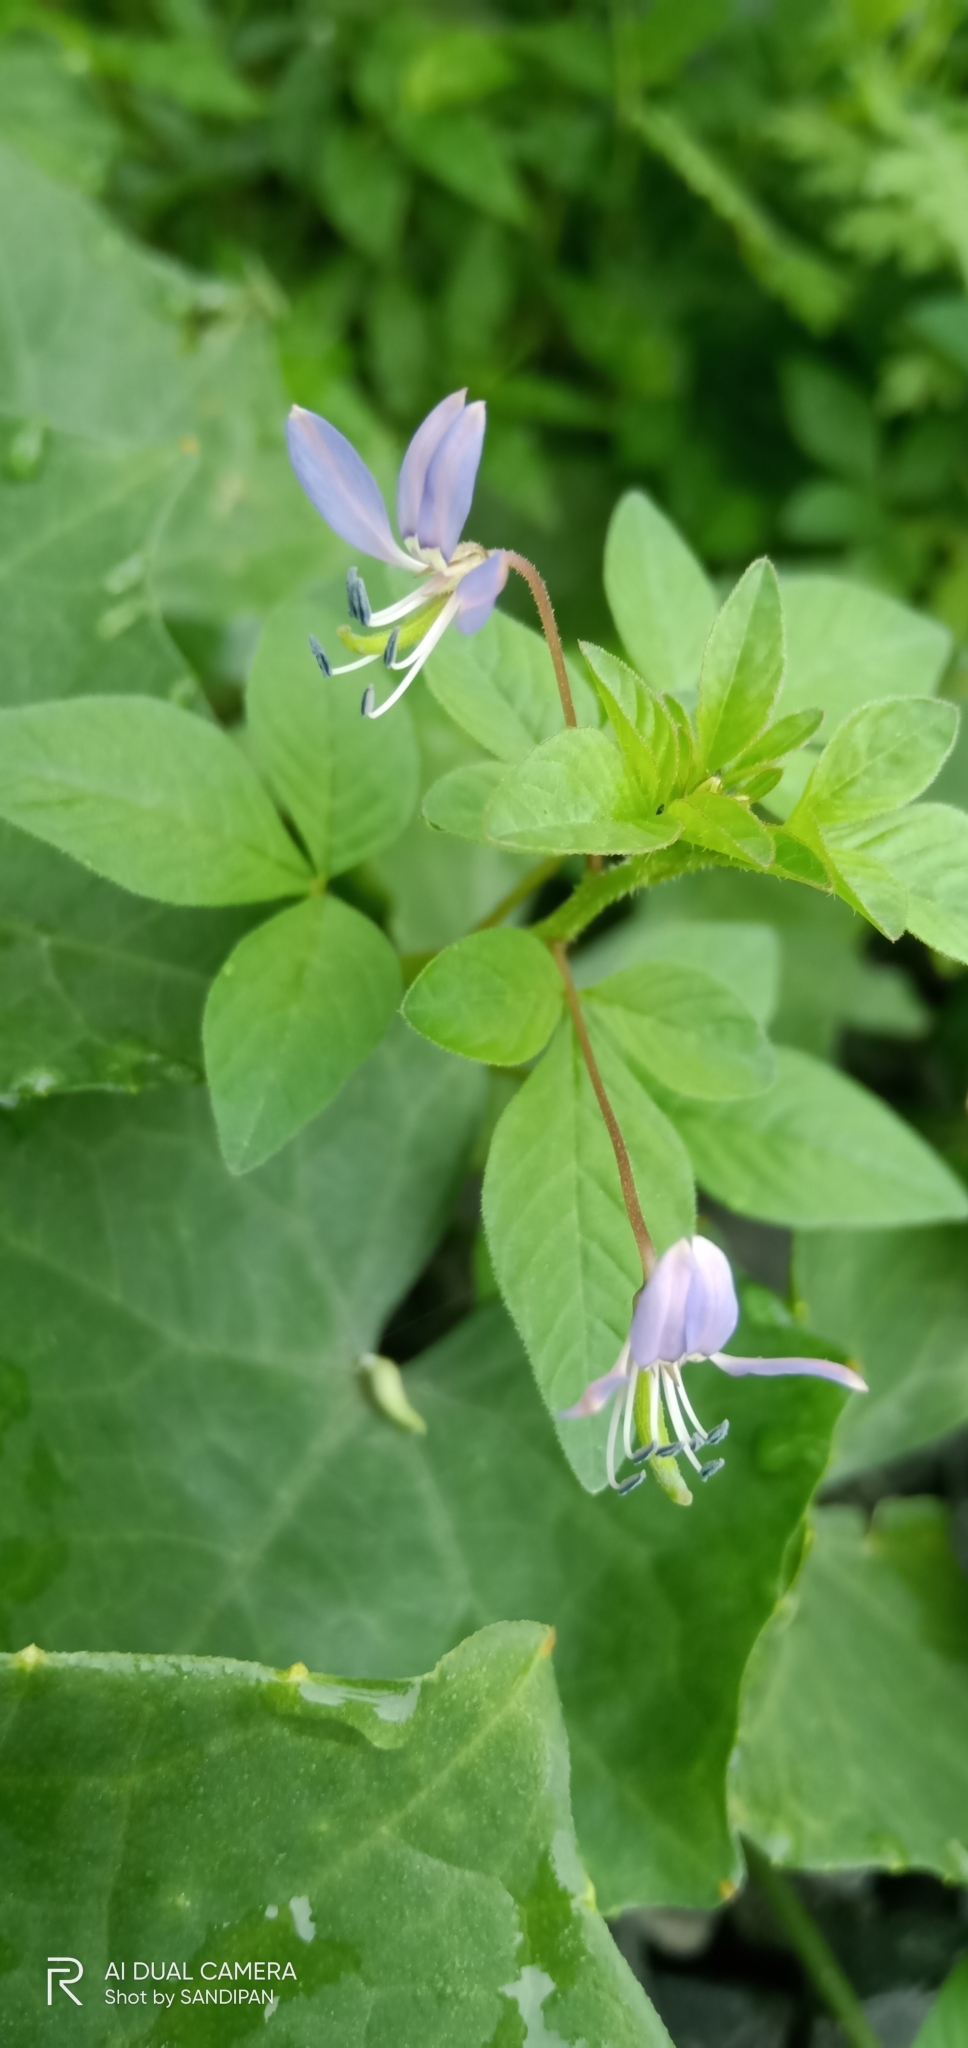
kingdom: Plantae
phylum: Tracheophyta
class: Magnoliopsida
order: Brassicales
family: Cleomaceae
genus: Sieruela
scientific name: Sieruela rutidosperma
